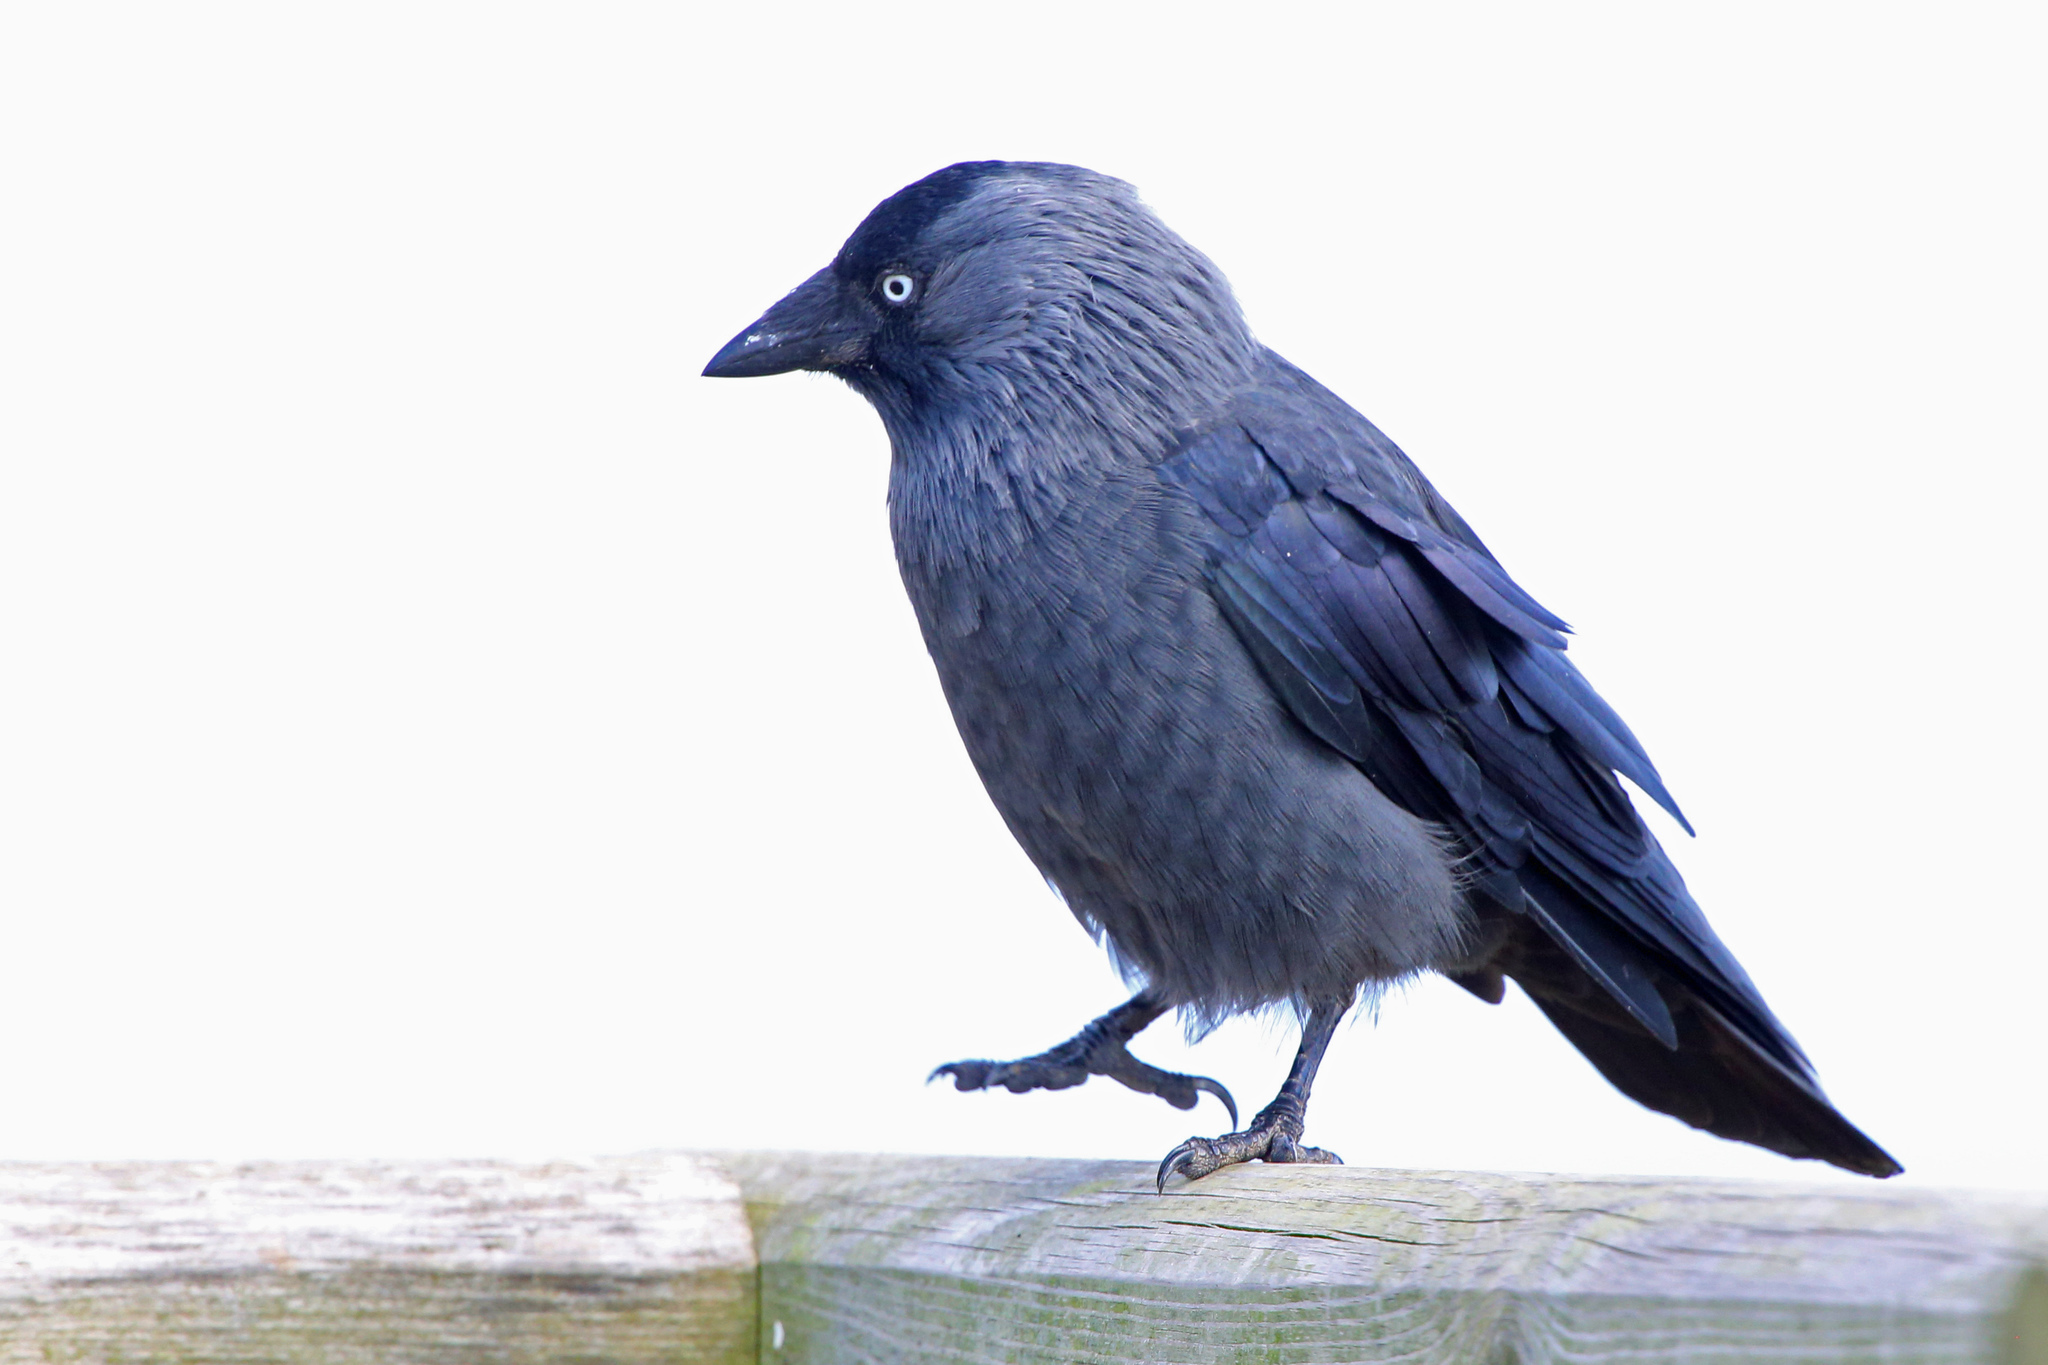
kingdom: Animalia
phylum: Chordata
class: Aves
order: Passeriformes
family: Corvidae
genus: Coloeus
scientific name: Coloeus monedula
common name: Western jackdaw
